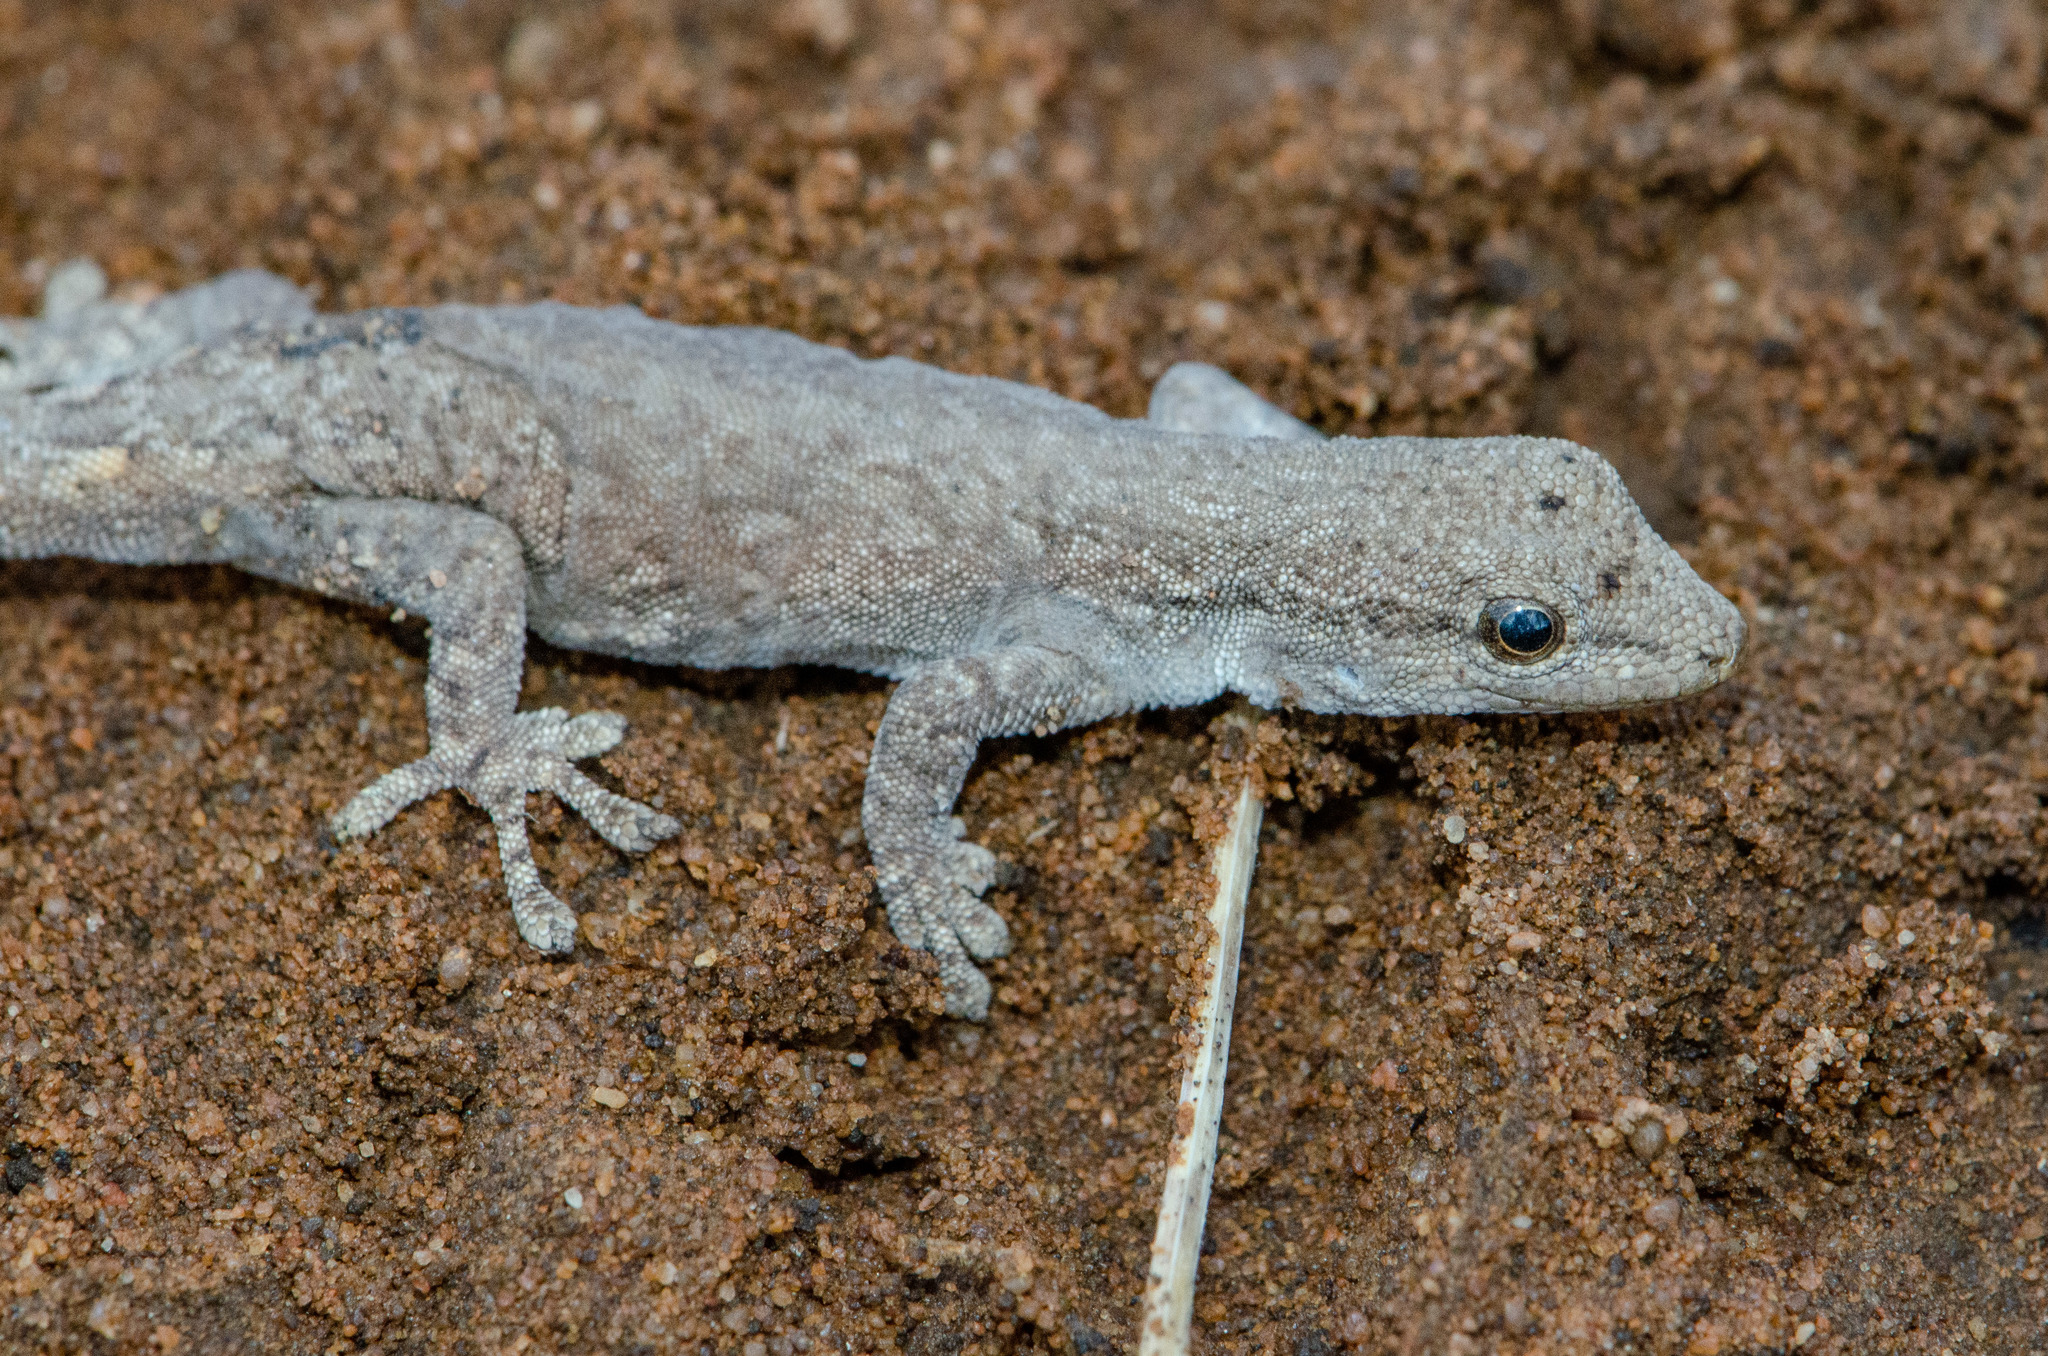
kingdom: Animalia
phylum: Chordata
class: Squamata
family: Gekkonidae
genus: Lygodactylus
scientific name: Lygodactylus klugei
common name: Kluge's dwarf gecko
